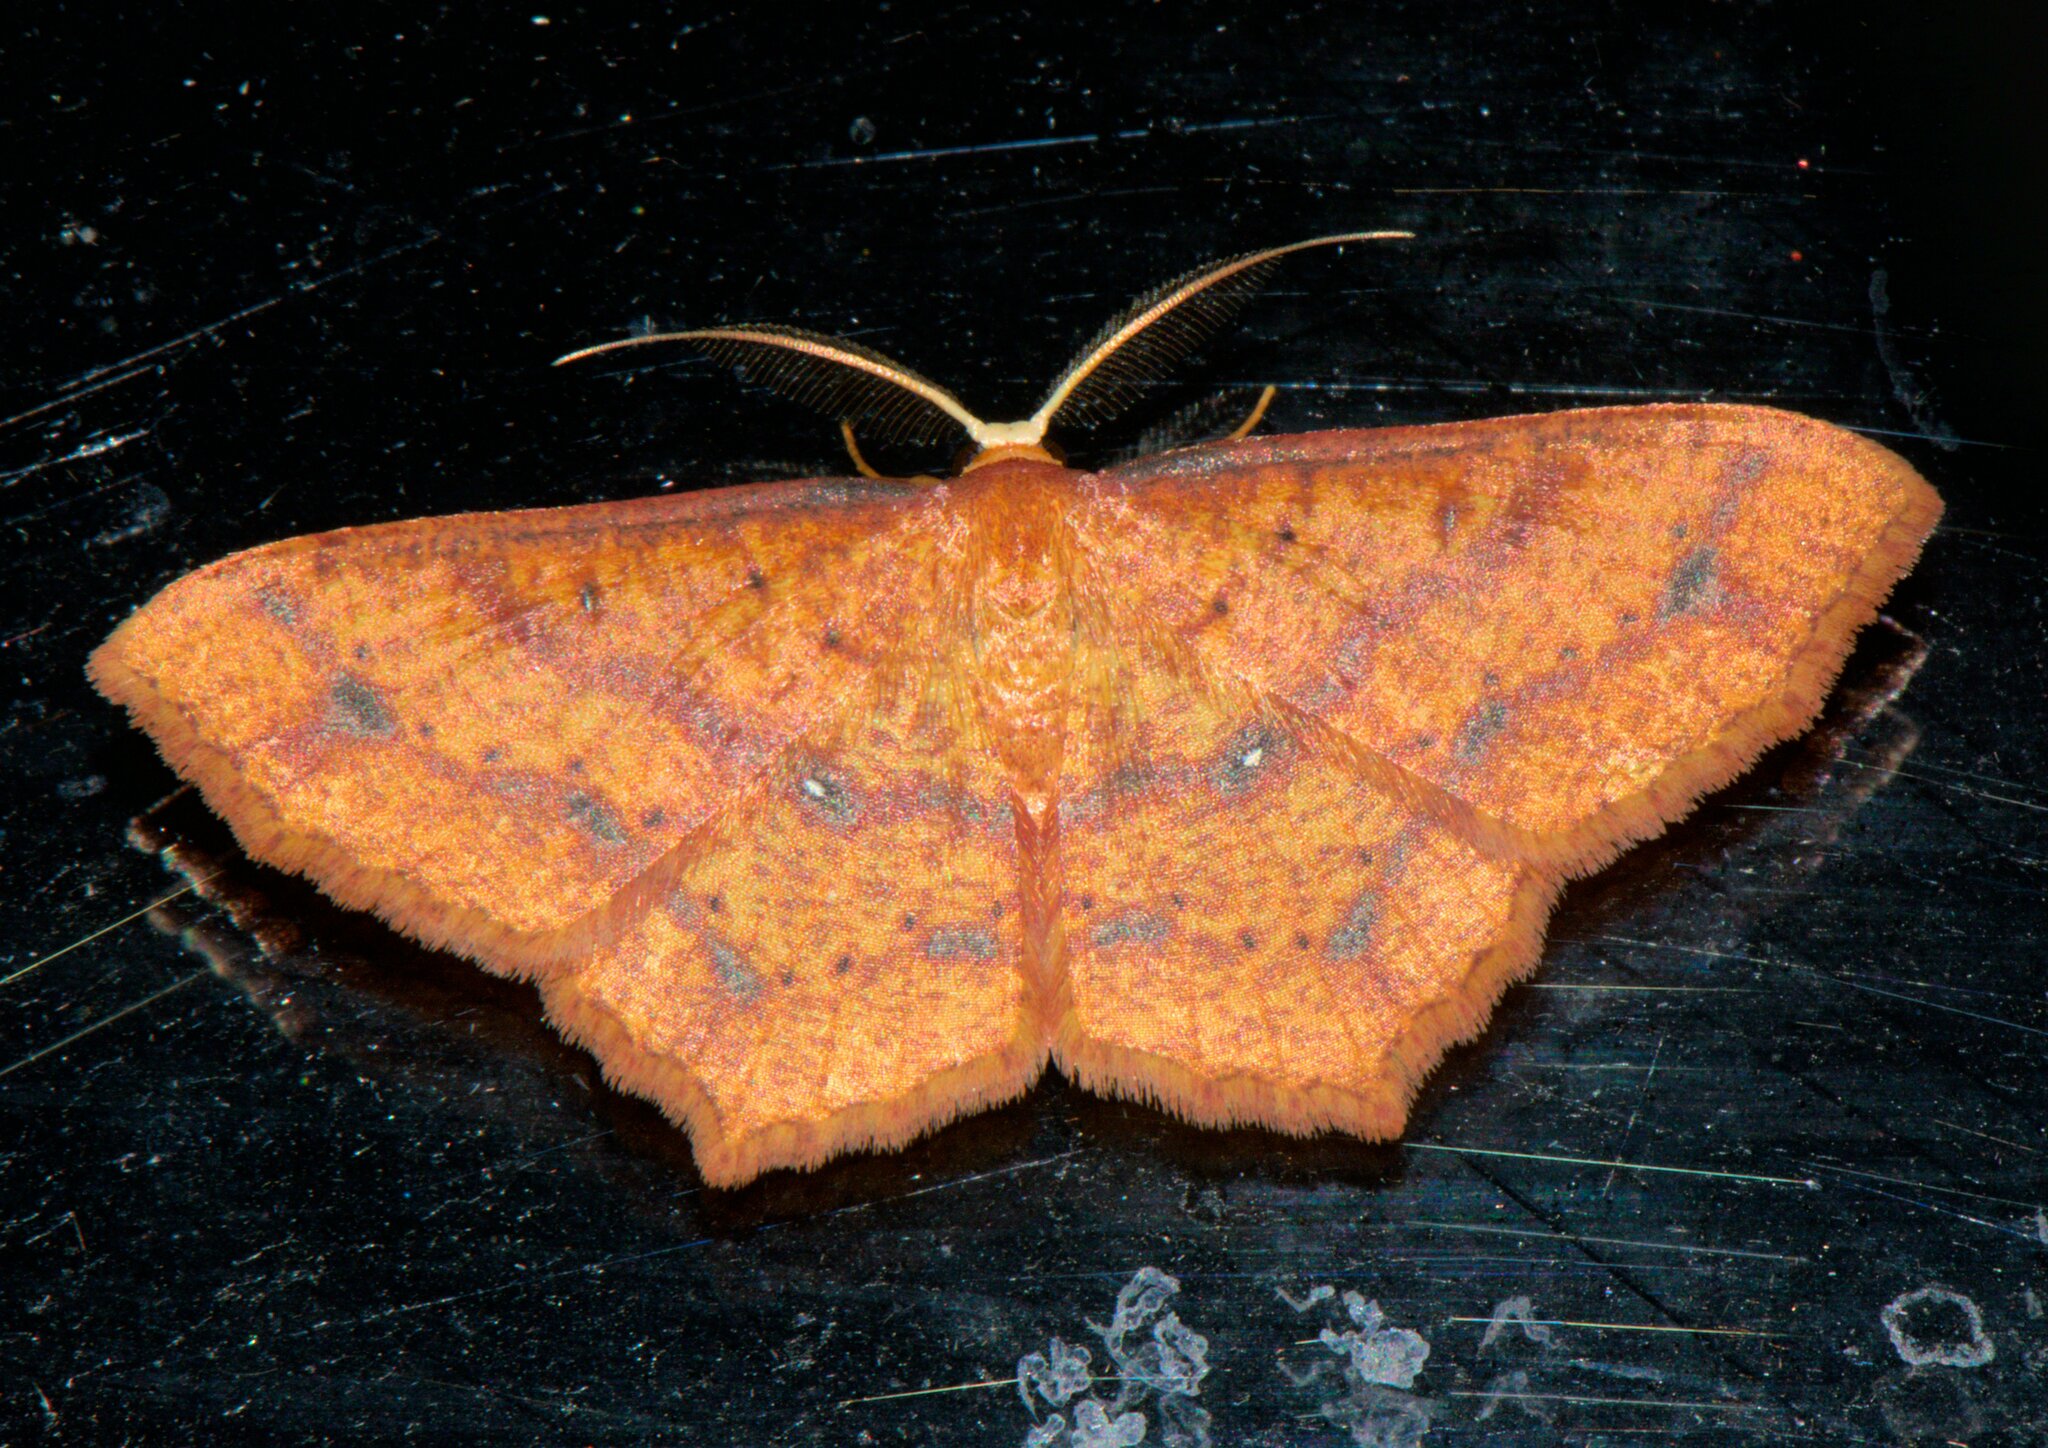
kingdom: Animalia
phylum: Arthropoda
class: Insecta
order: Lepidoptera
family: Geometridae
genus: Synegiodes
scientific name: Synegiodes hyriaria
